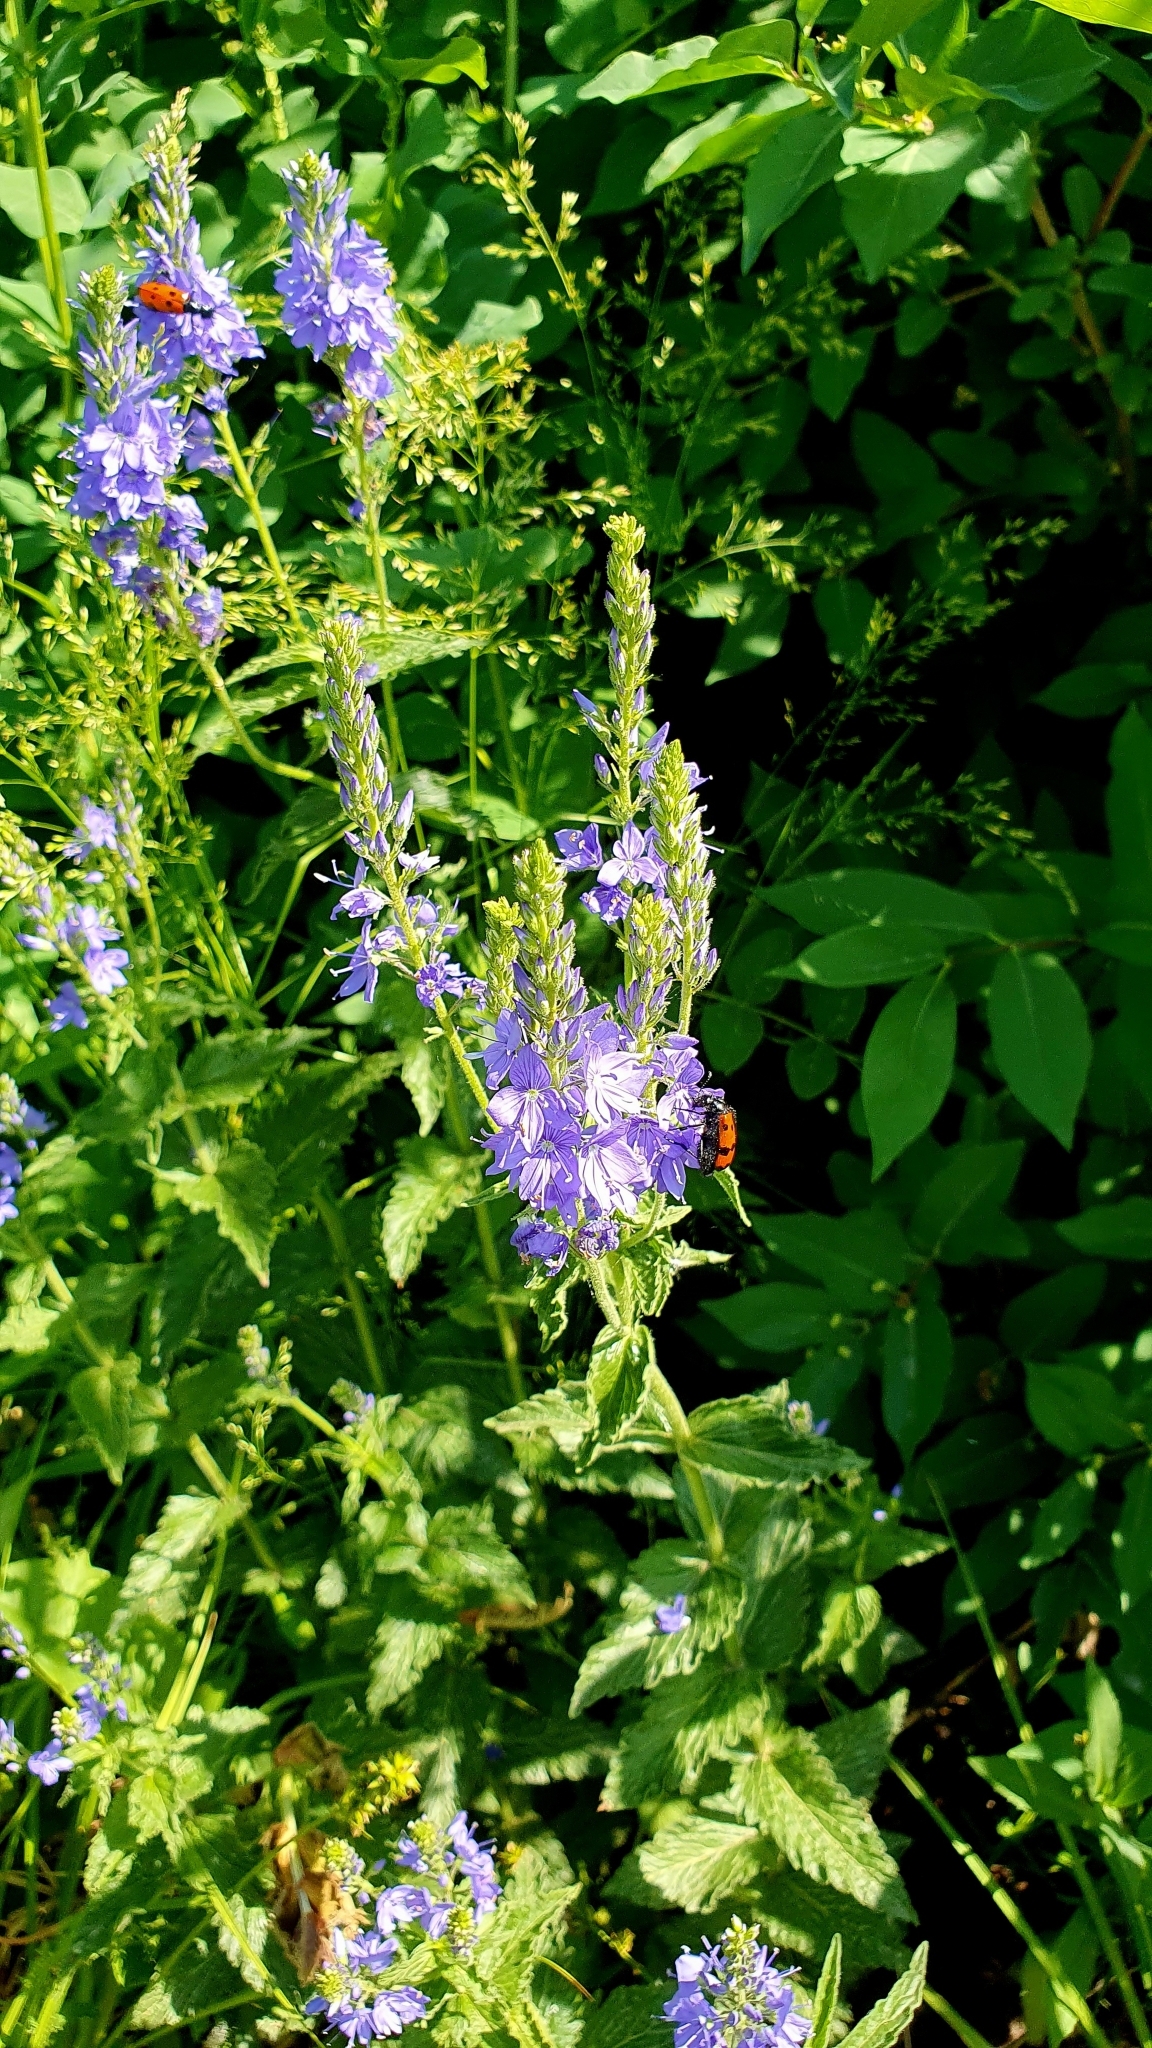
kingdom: Plantae
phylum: Tracheophyta
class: Magnoliopsida
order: Lamiales
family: Plantaginaceae
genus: Veronica
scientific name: Veronica teucrium
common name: Large speedwell
